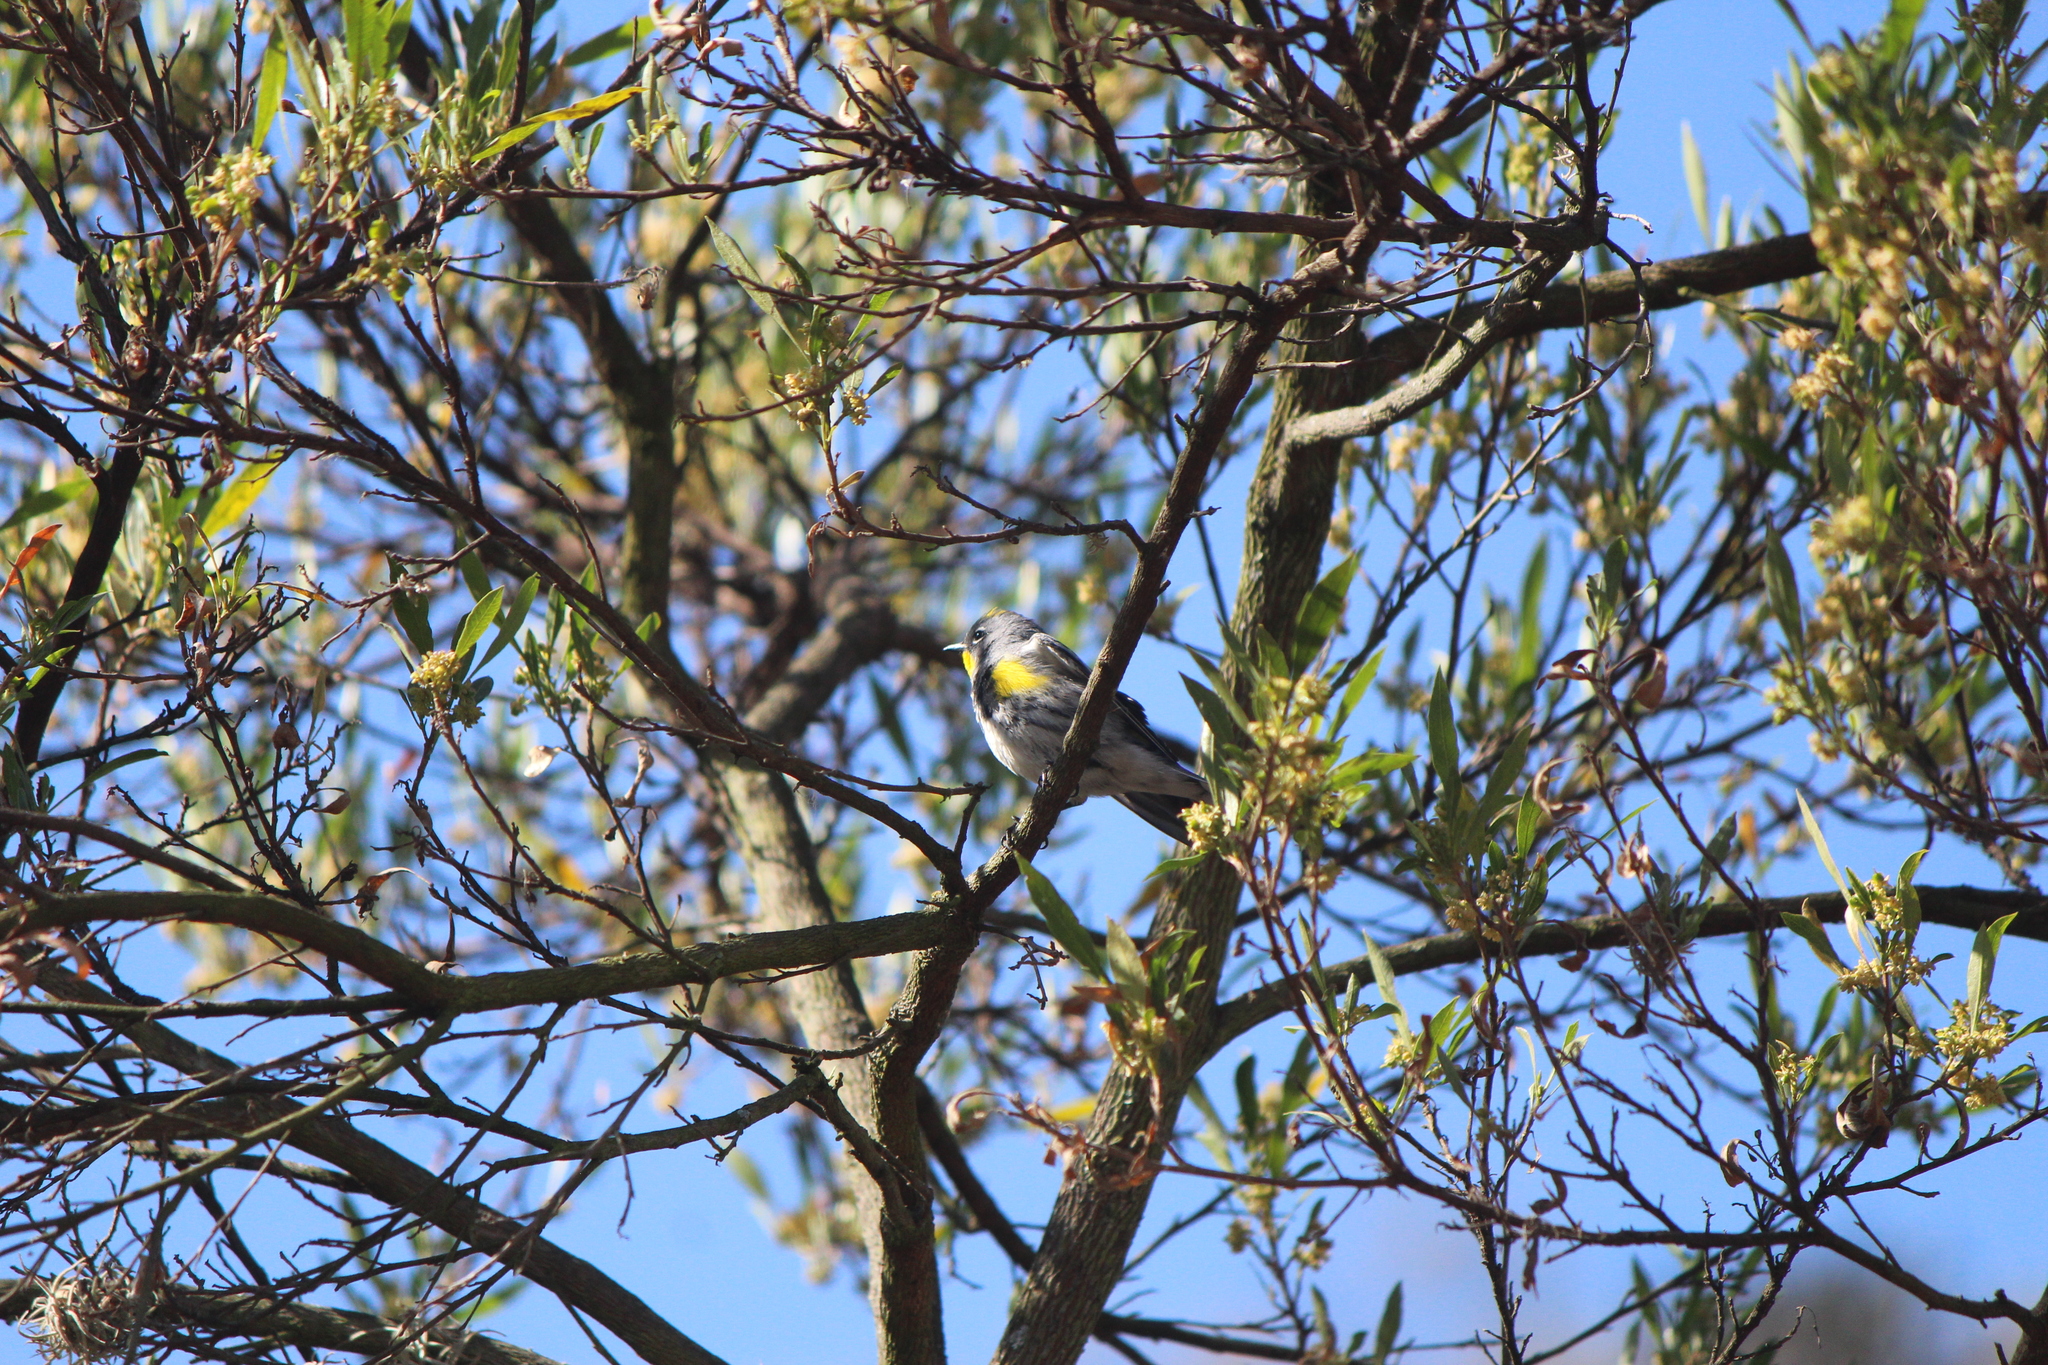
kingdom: Animalia
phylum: Chordata
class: Aves
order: Passeriformes
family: Parulidae
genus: Setophaga
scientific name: Setophaga auduboni
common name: Audubon's warbler
